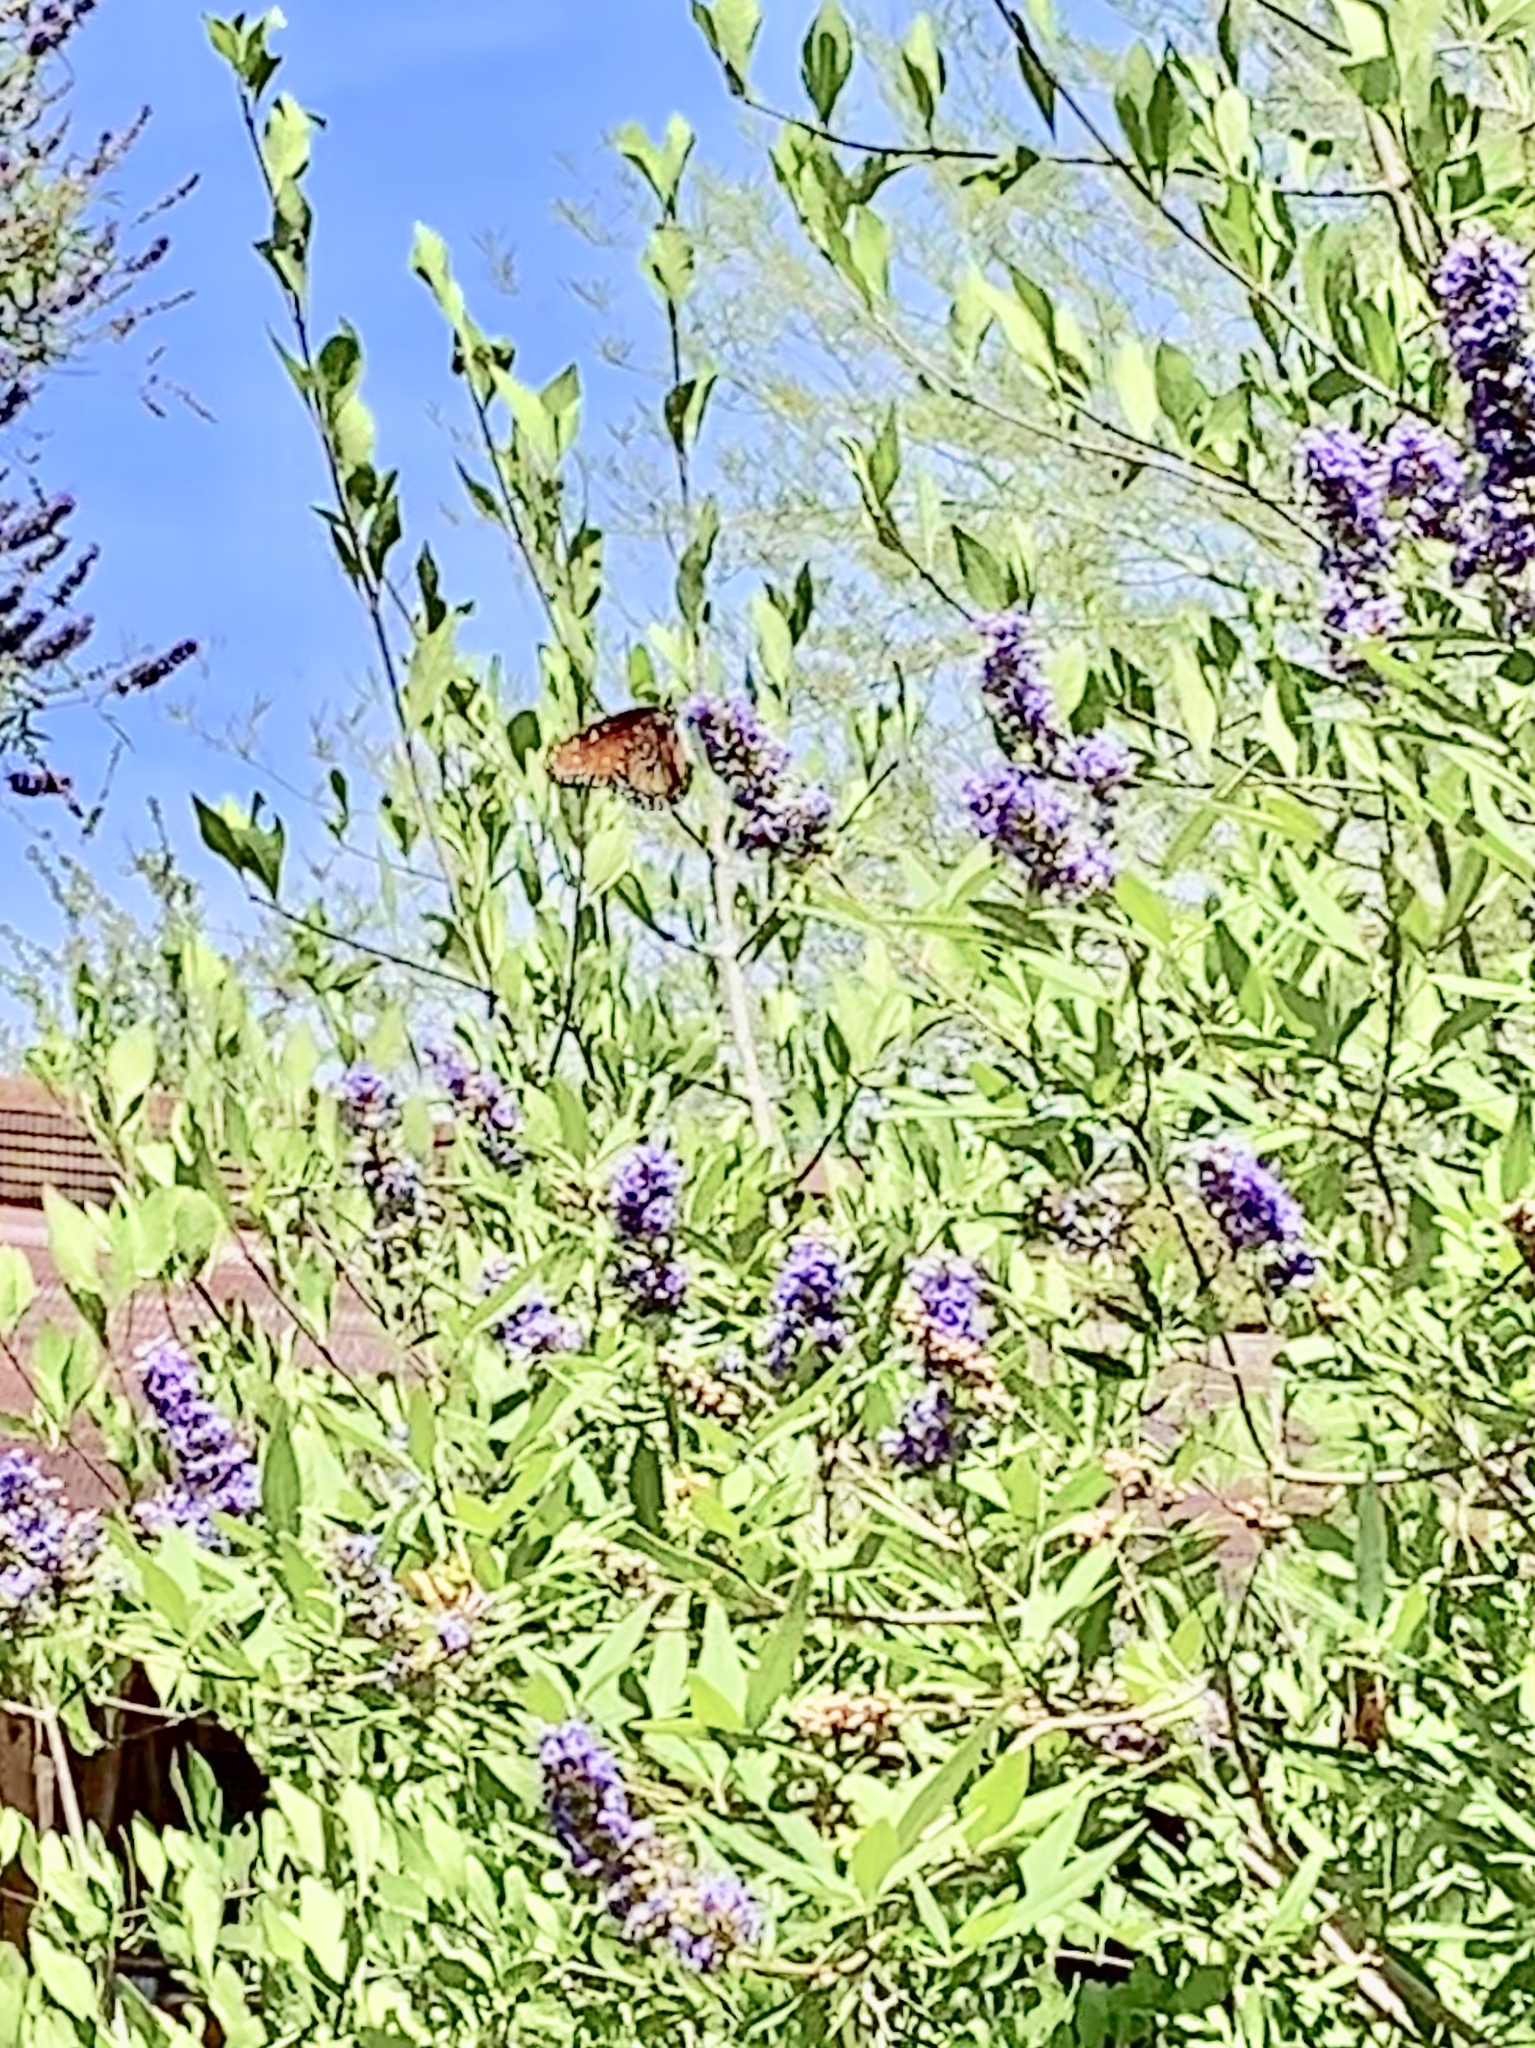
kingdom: Animalia
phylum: Arthropoda
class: Insecta
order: Lepidoptera
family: Nymphalidae
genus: Danaus
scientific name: Danaus gilippus
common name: Queen
